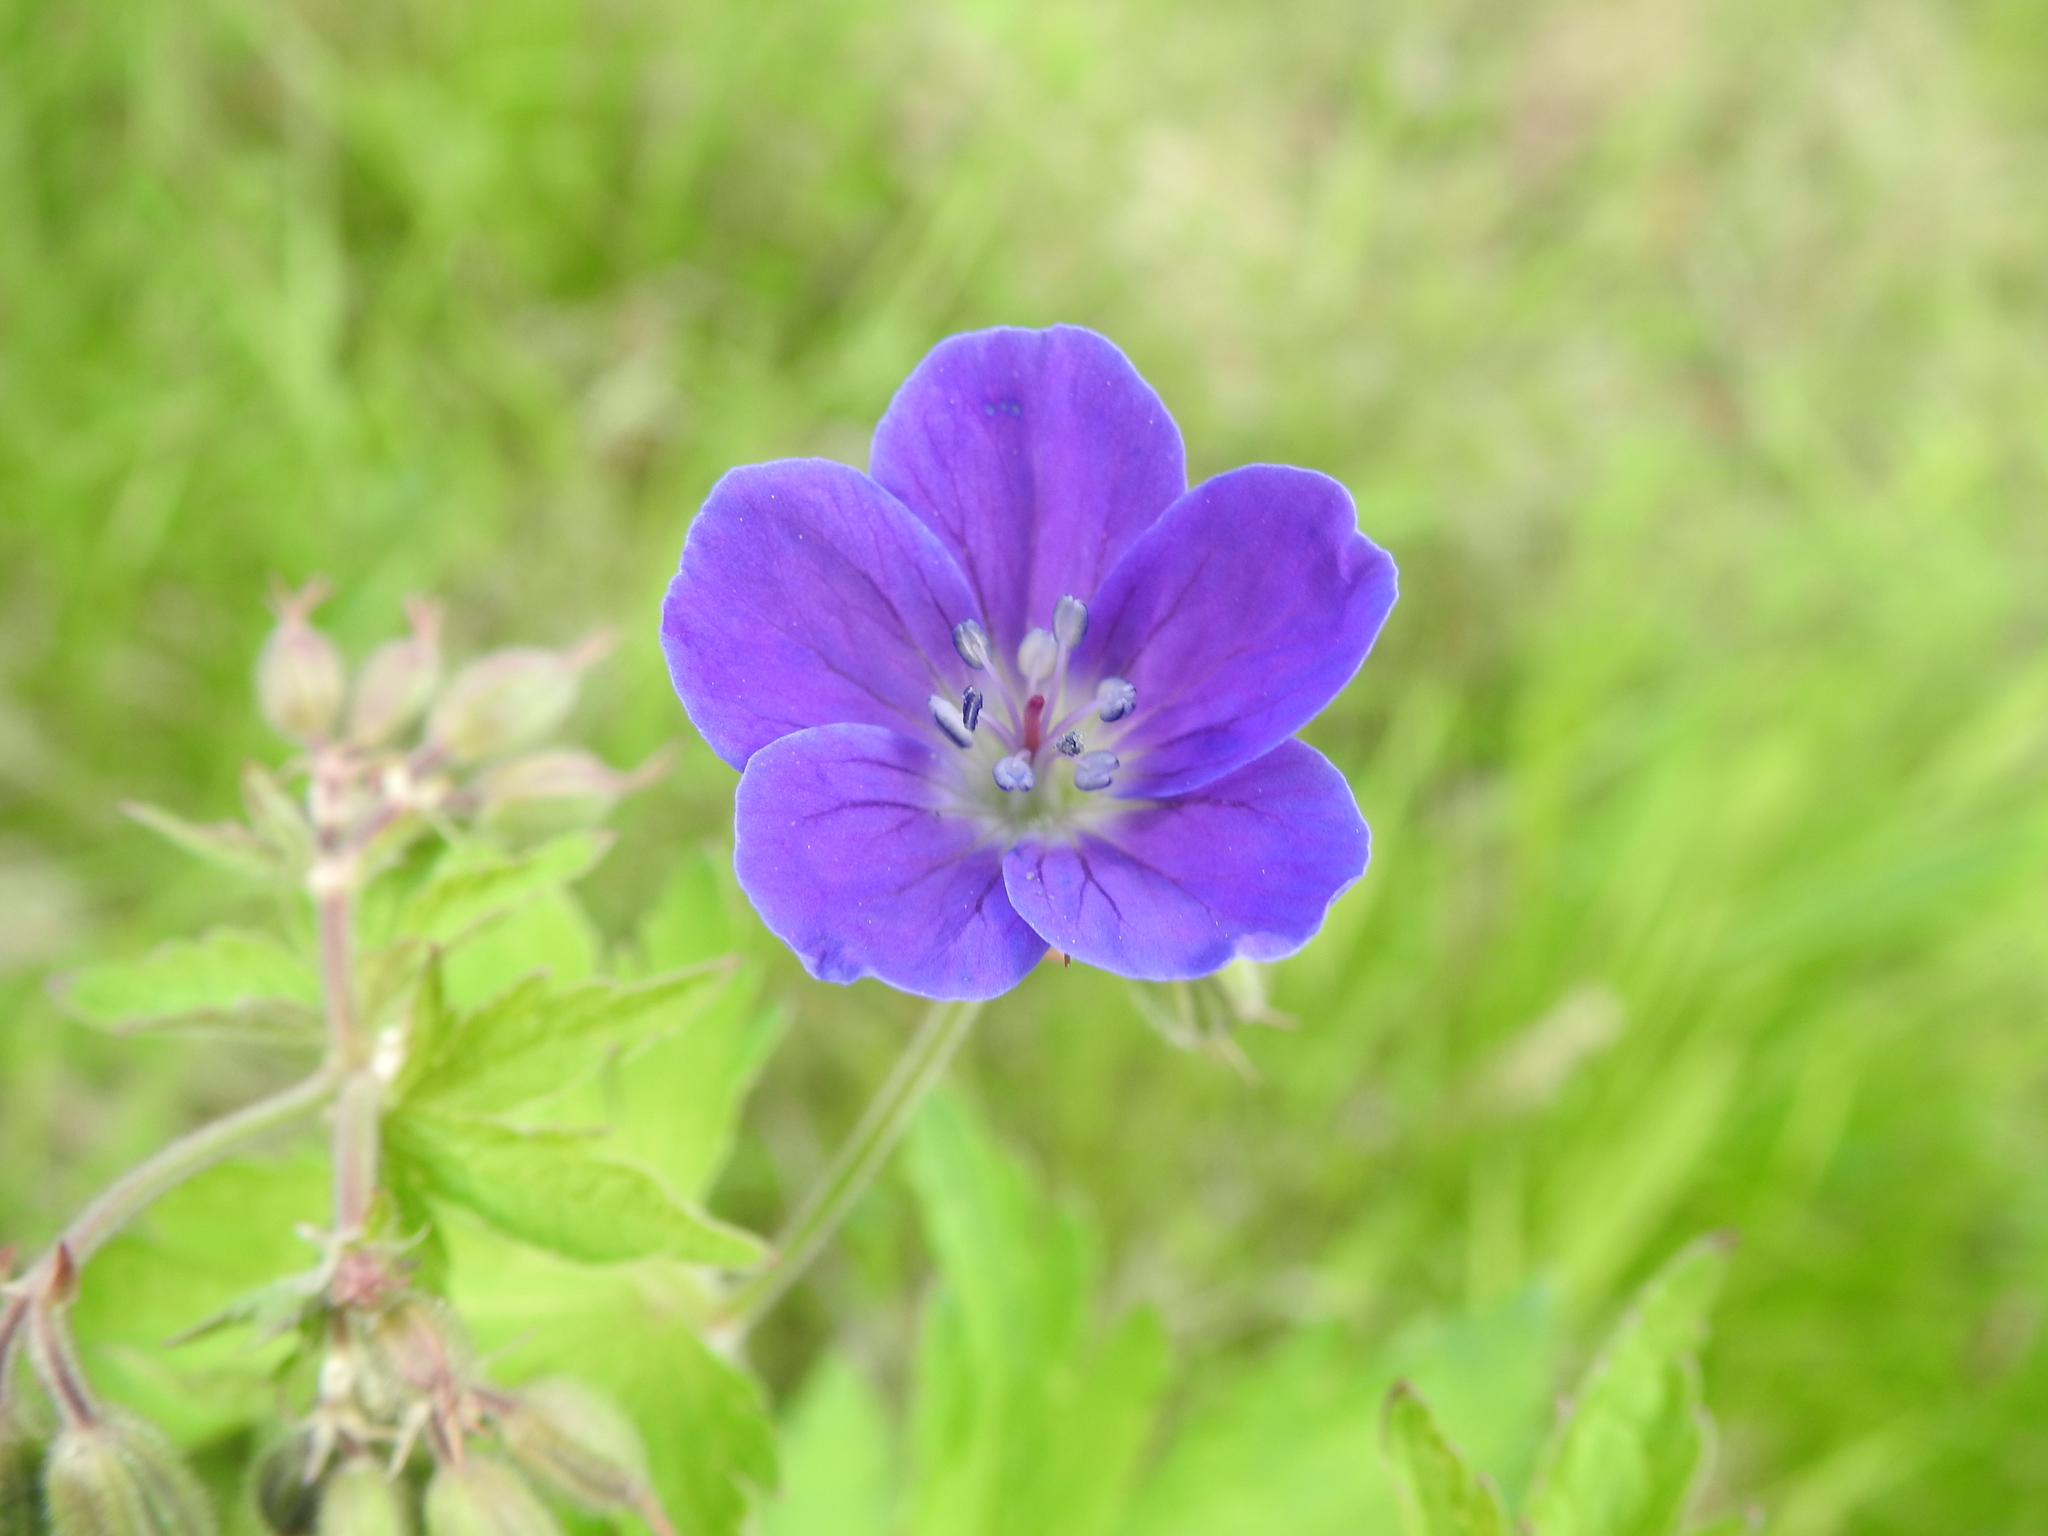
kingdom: Plantae
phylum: Tracheophyta
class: Magnoliopsida
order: Geraniales
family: Geraniaceae
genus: Geranium
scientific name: Geranium sylvaticum
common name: Wood crane's-bill
